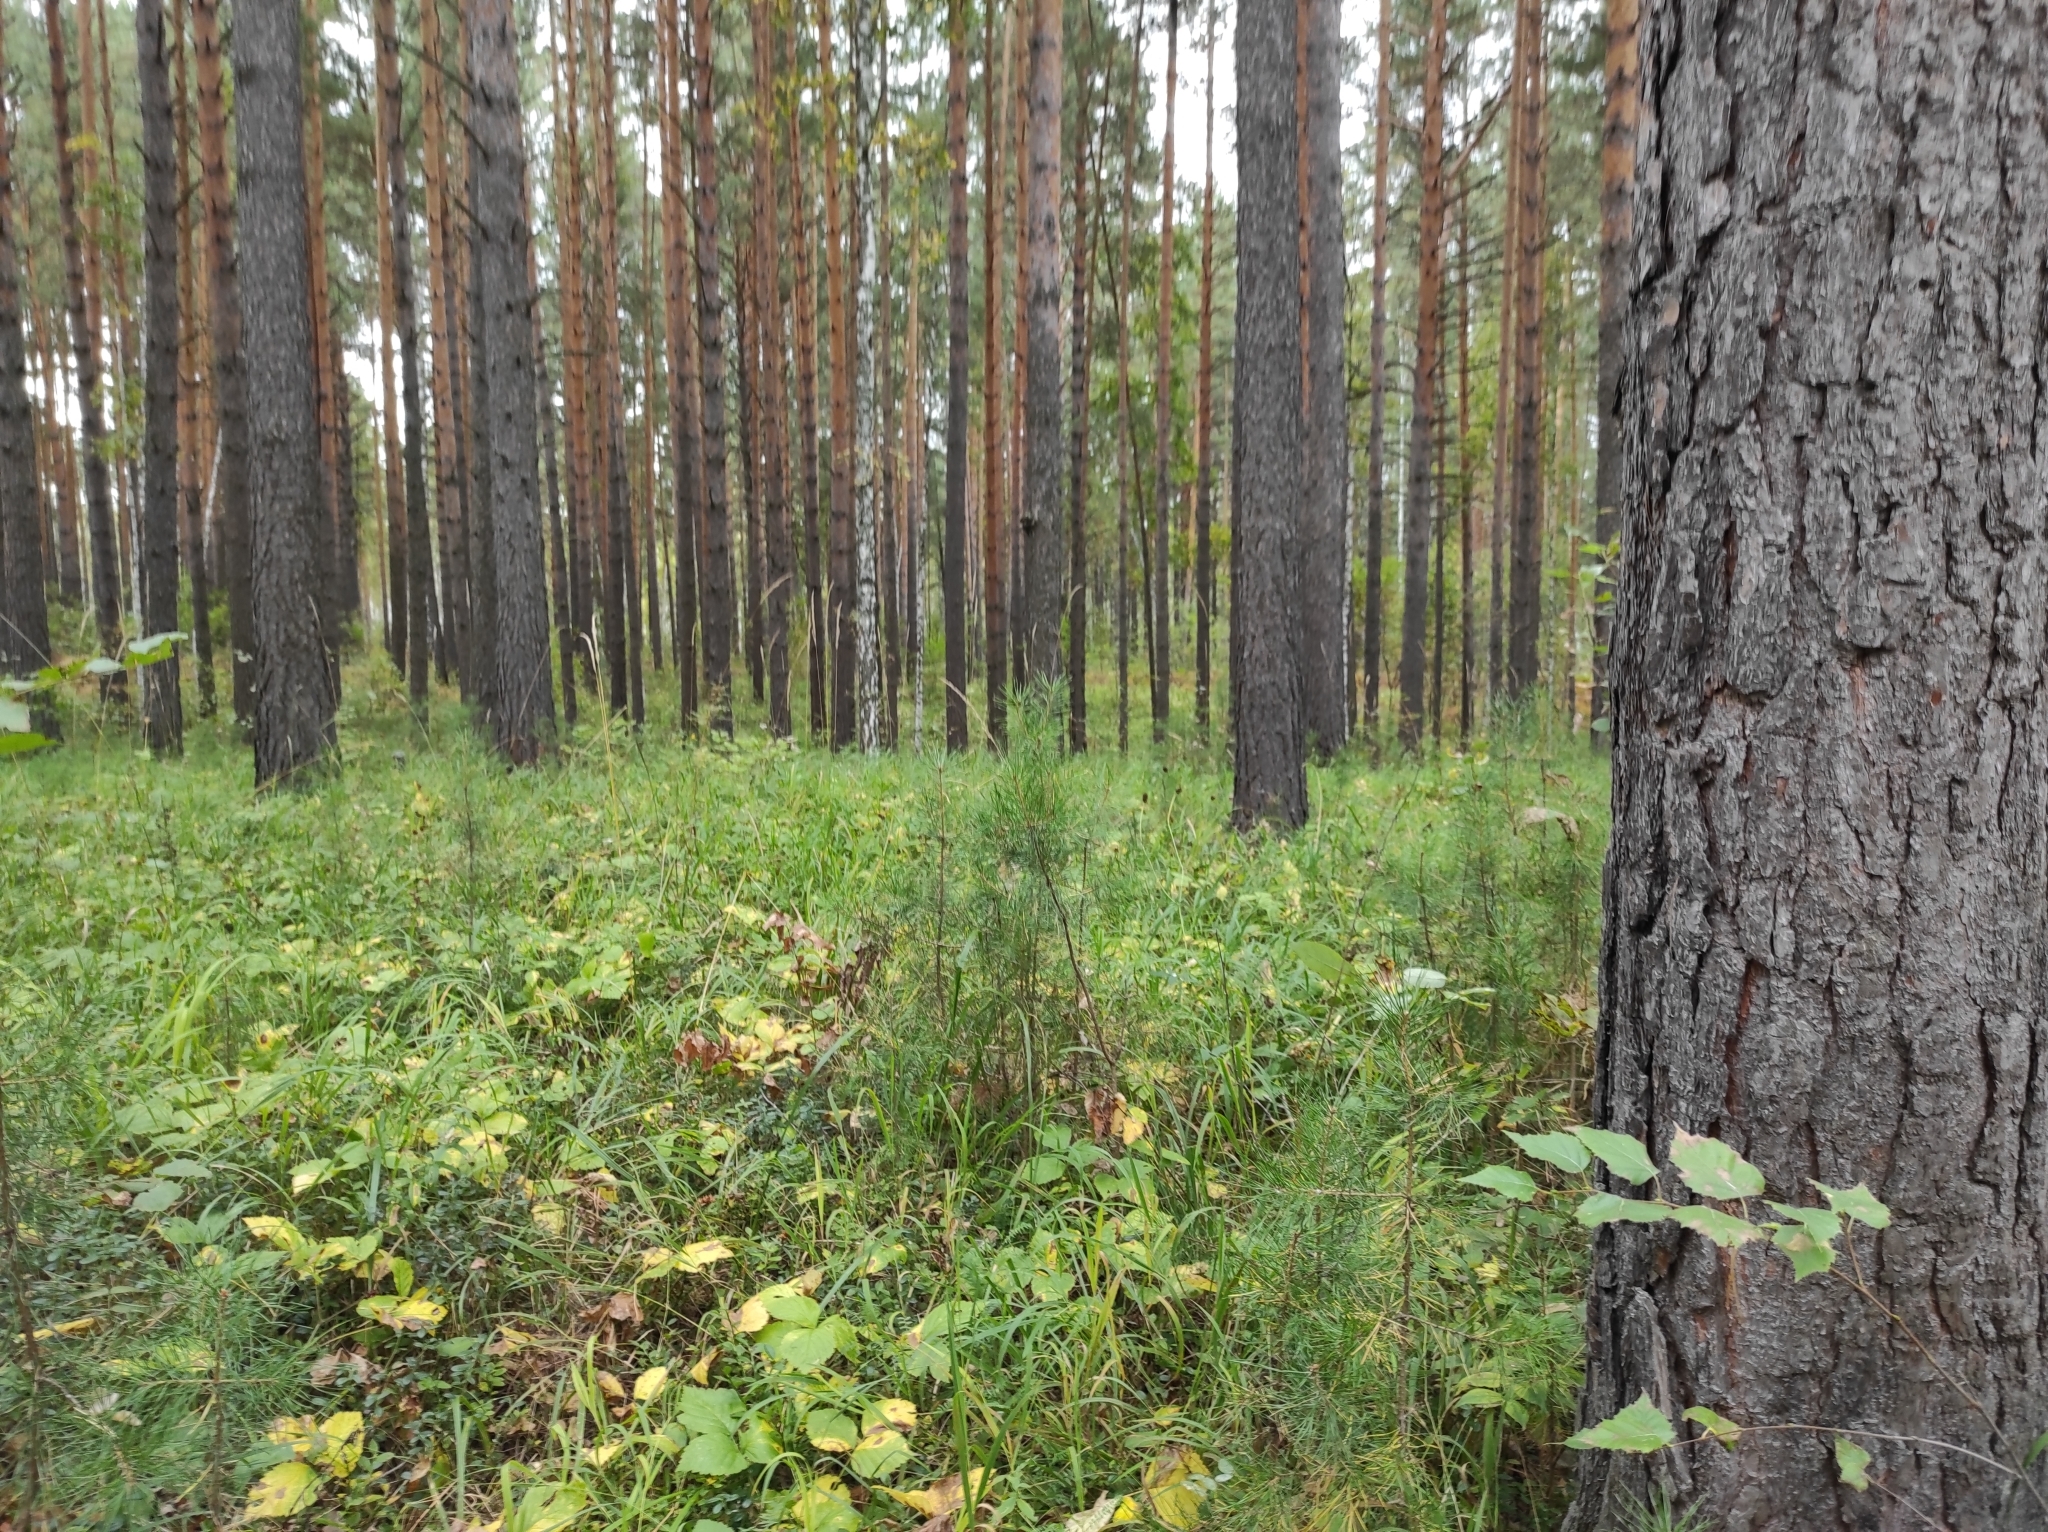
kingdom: Plantae
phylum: Tracheophyta
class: Magnoliopsida
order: Rosales
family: Rosaceae
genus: Rubus
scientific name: Rubus saxatilis
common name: Stone bramble
